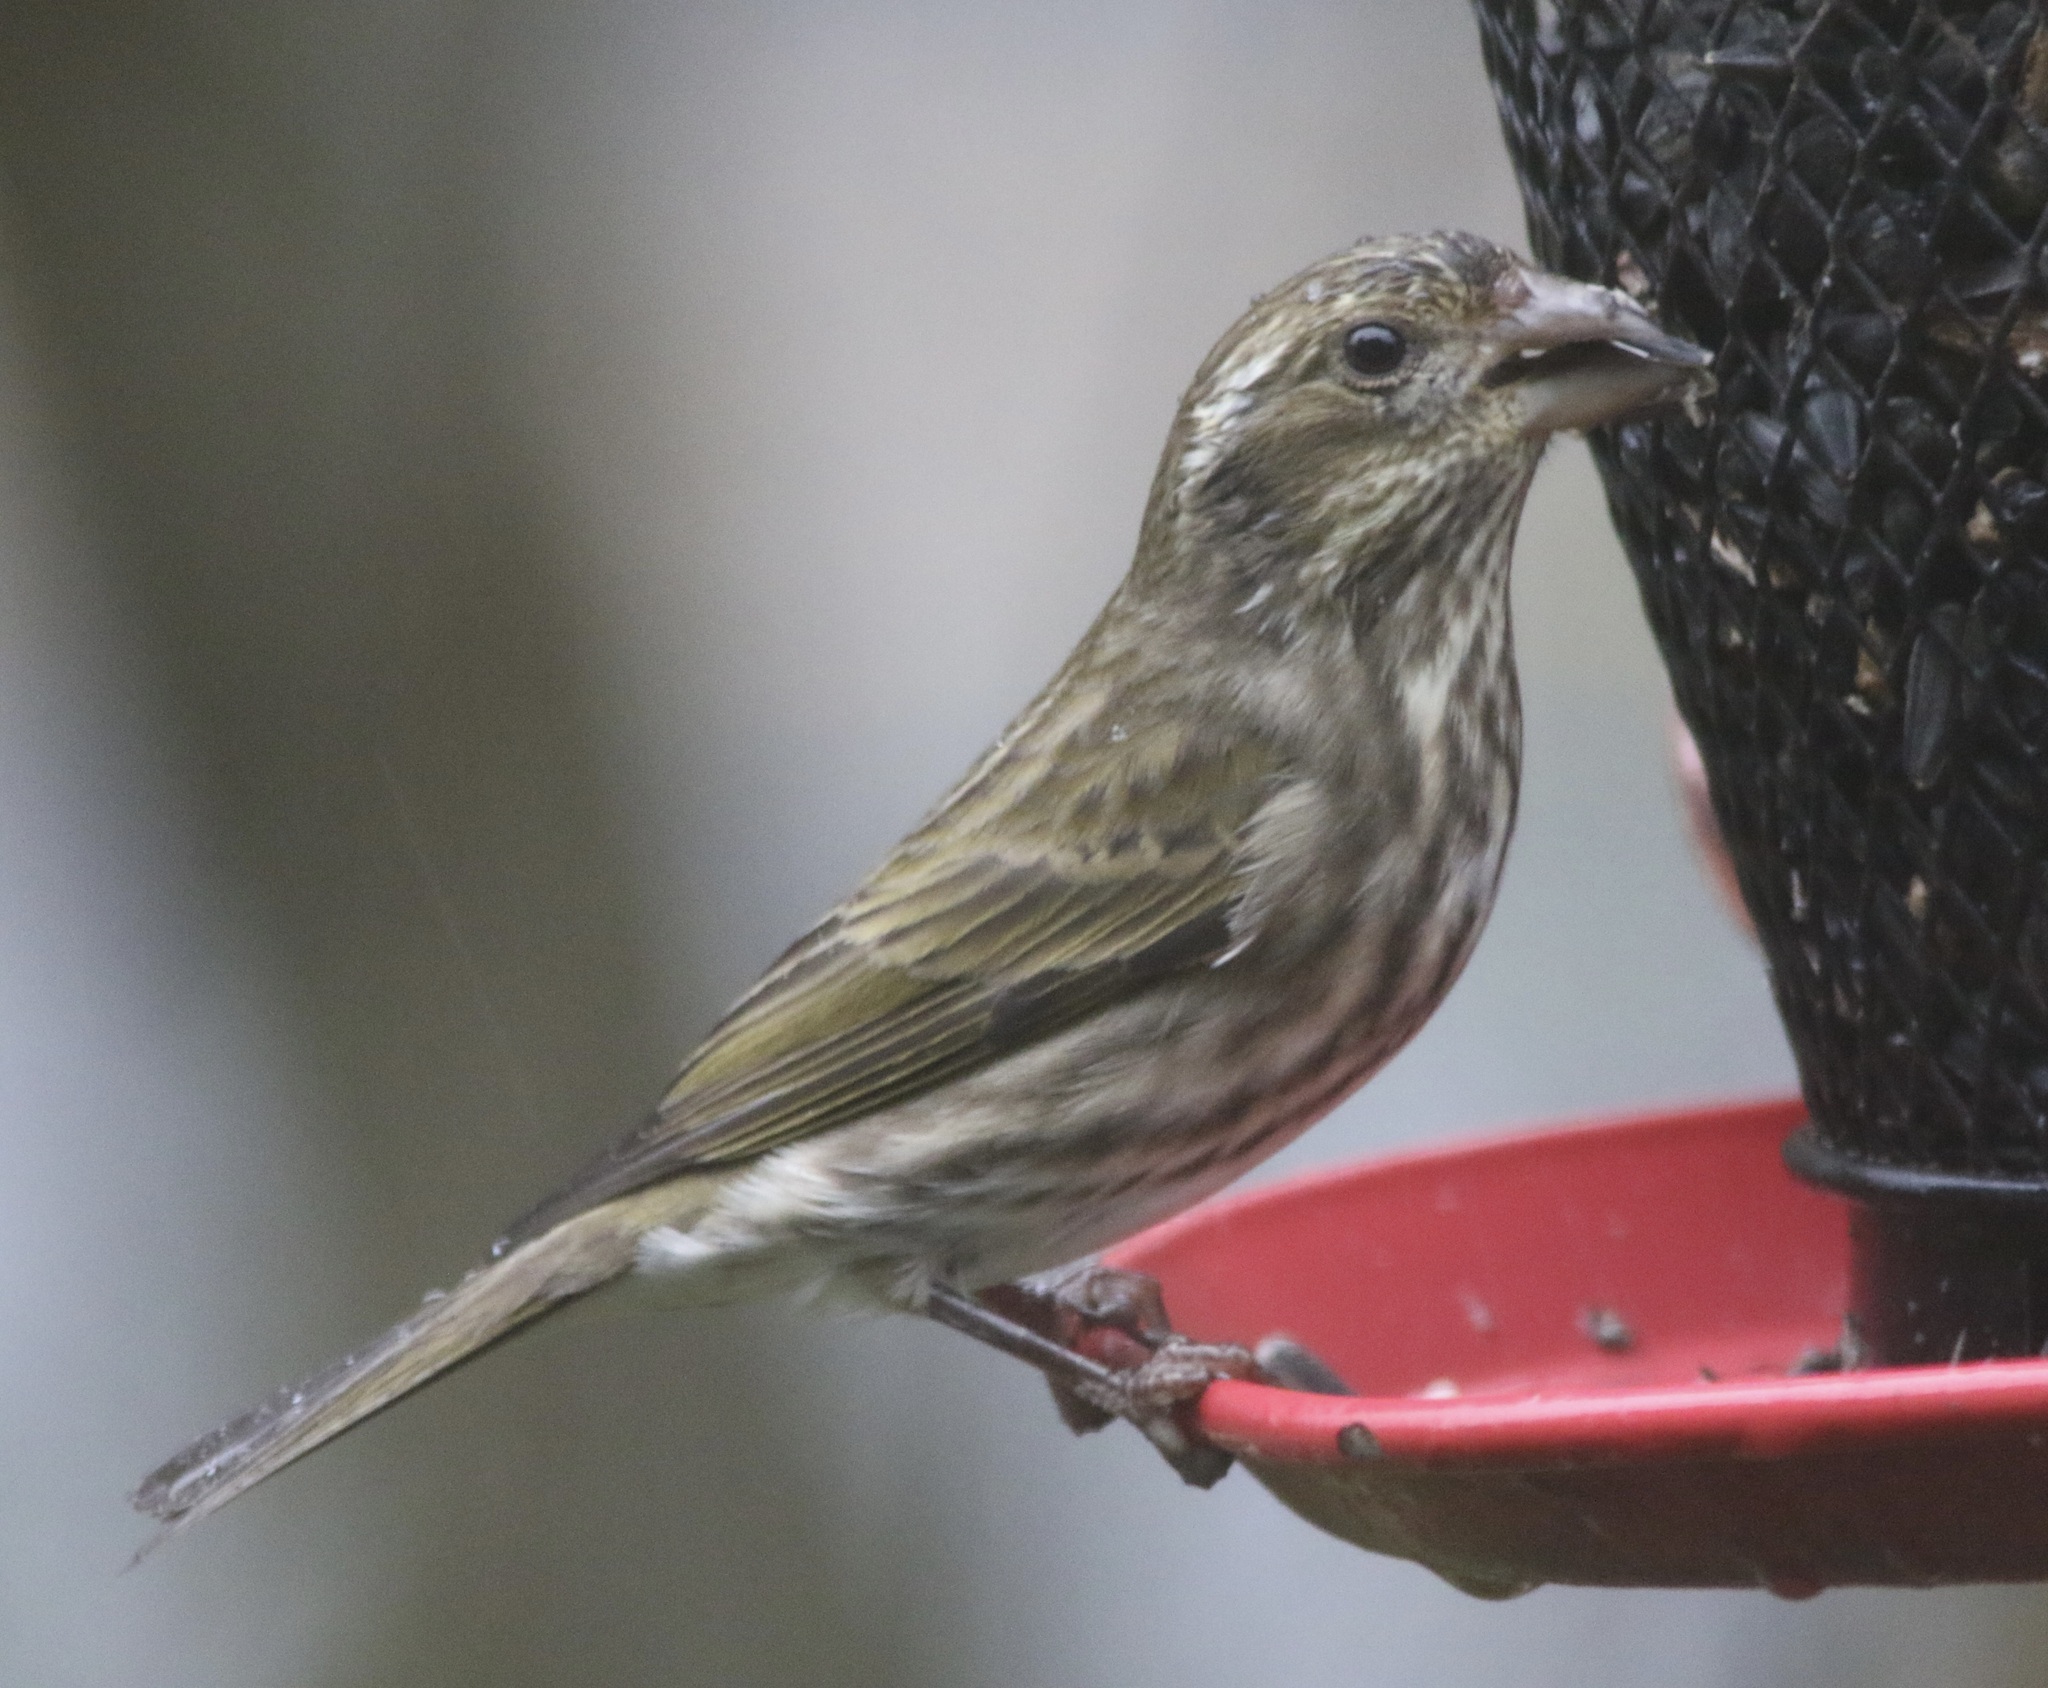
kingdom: Animalia
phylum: Chordata
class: Aves
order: Passeriformes
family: Fringillidae
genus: Haemorhous
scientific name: Haemorhous purpureus
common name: Purple finch
